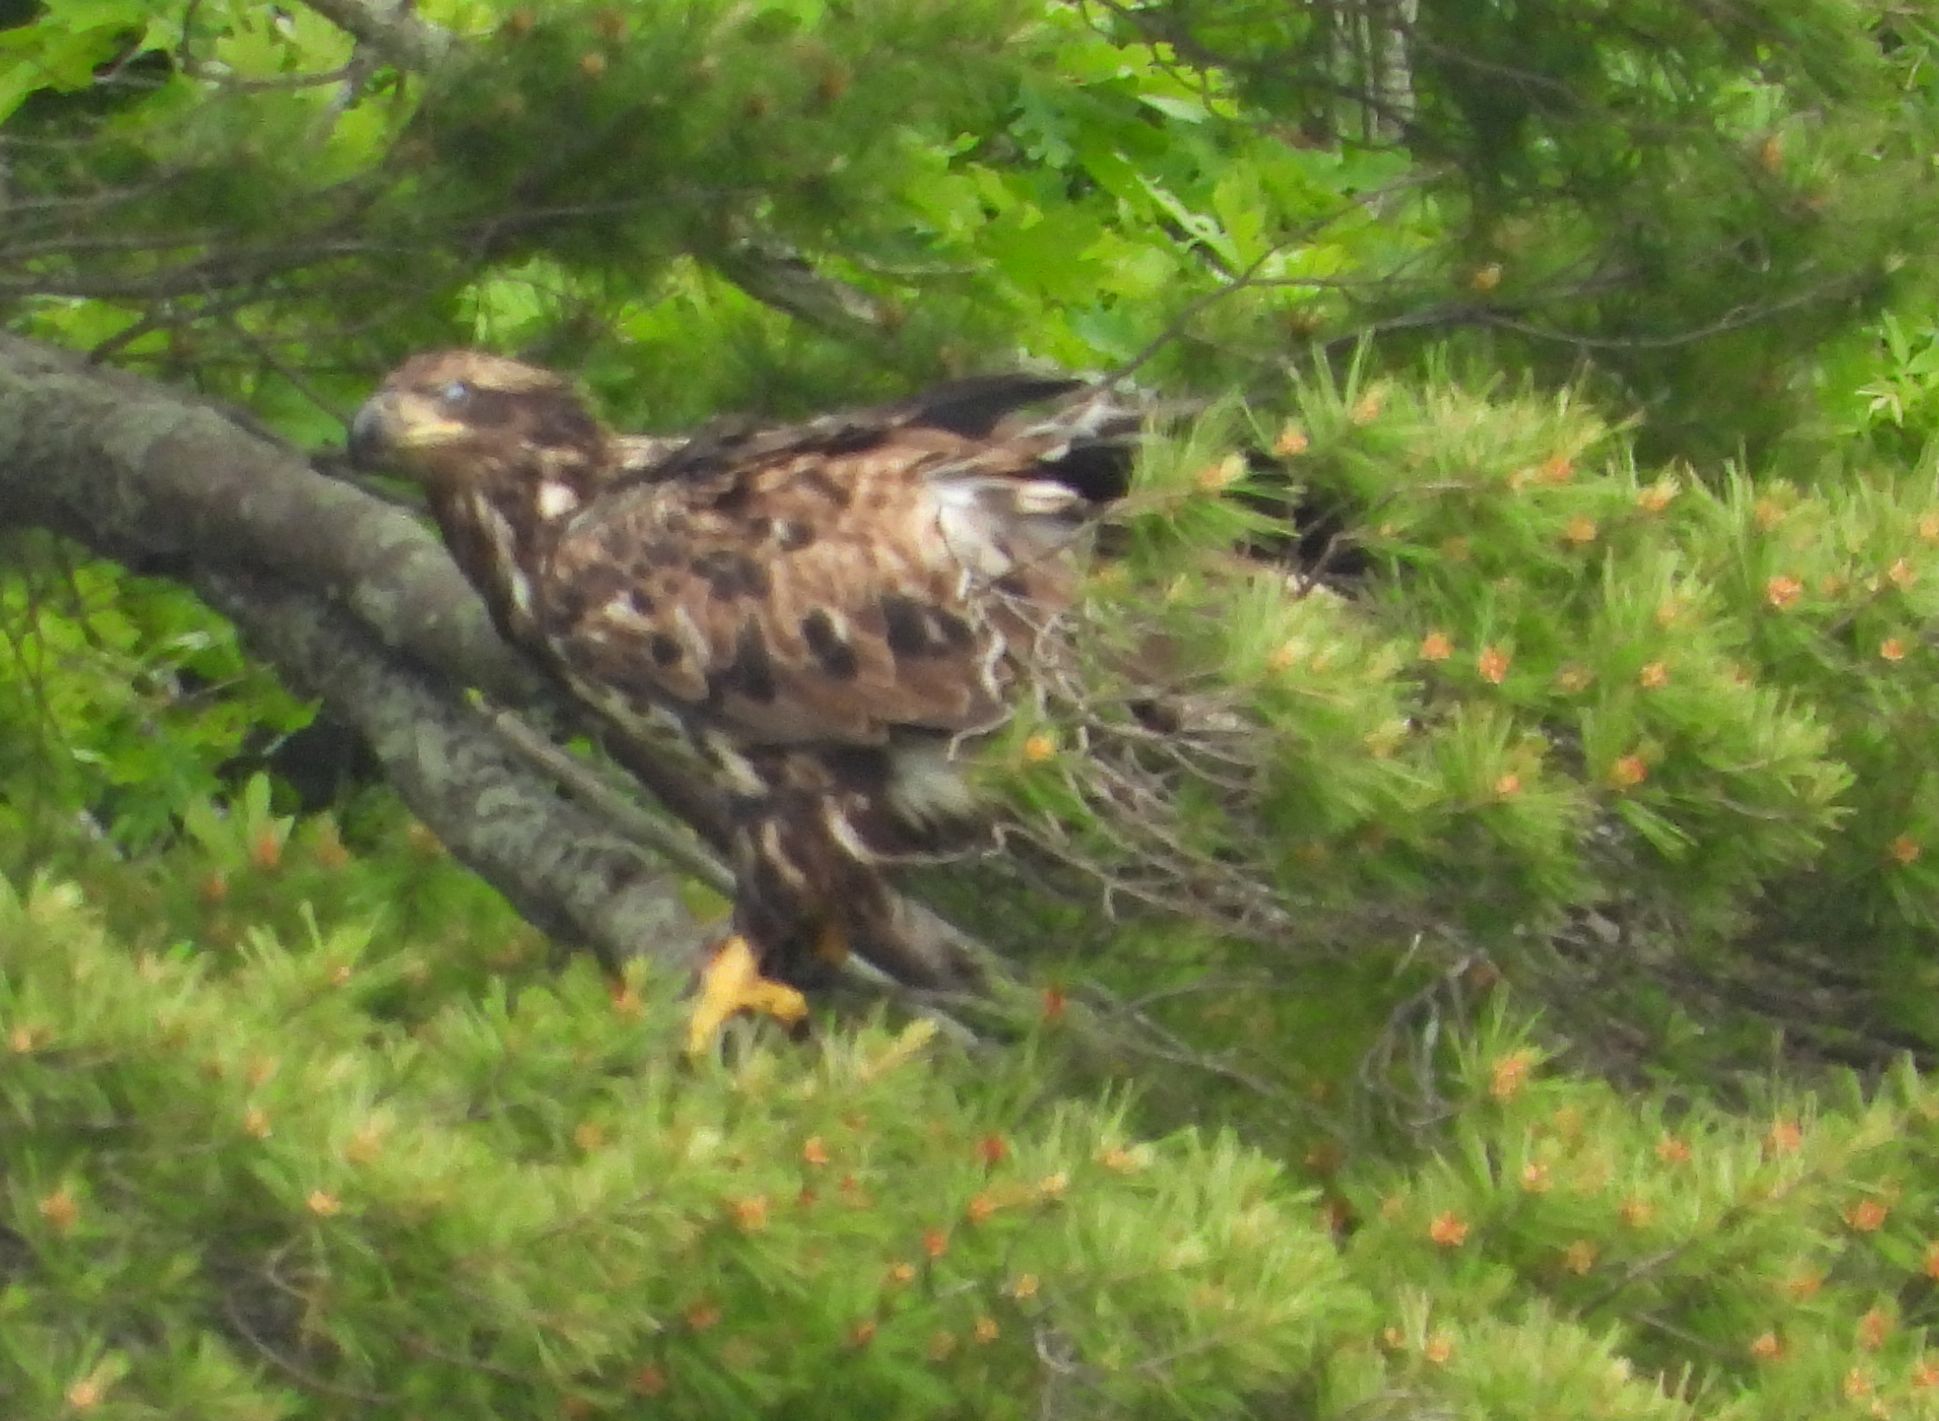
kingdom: Animalia
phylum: Chordata
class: Aves
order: Accipitriformes
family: Accipitridae
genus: Haliaeetus
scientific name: Haliaeetus leucocephalus
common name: Bald eagle
